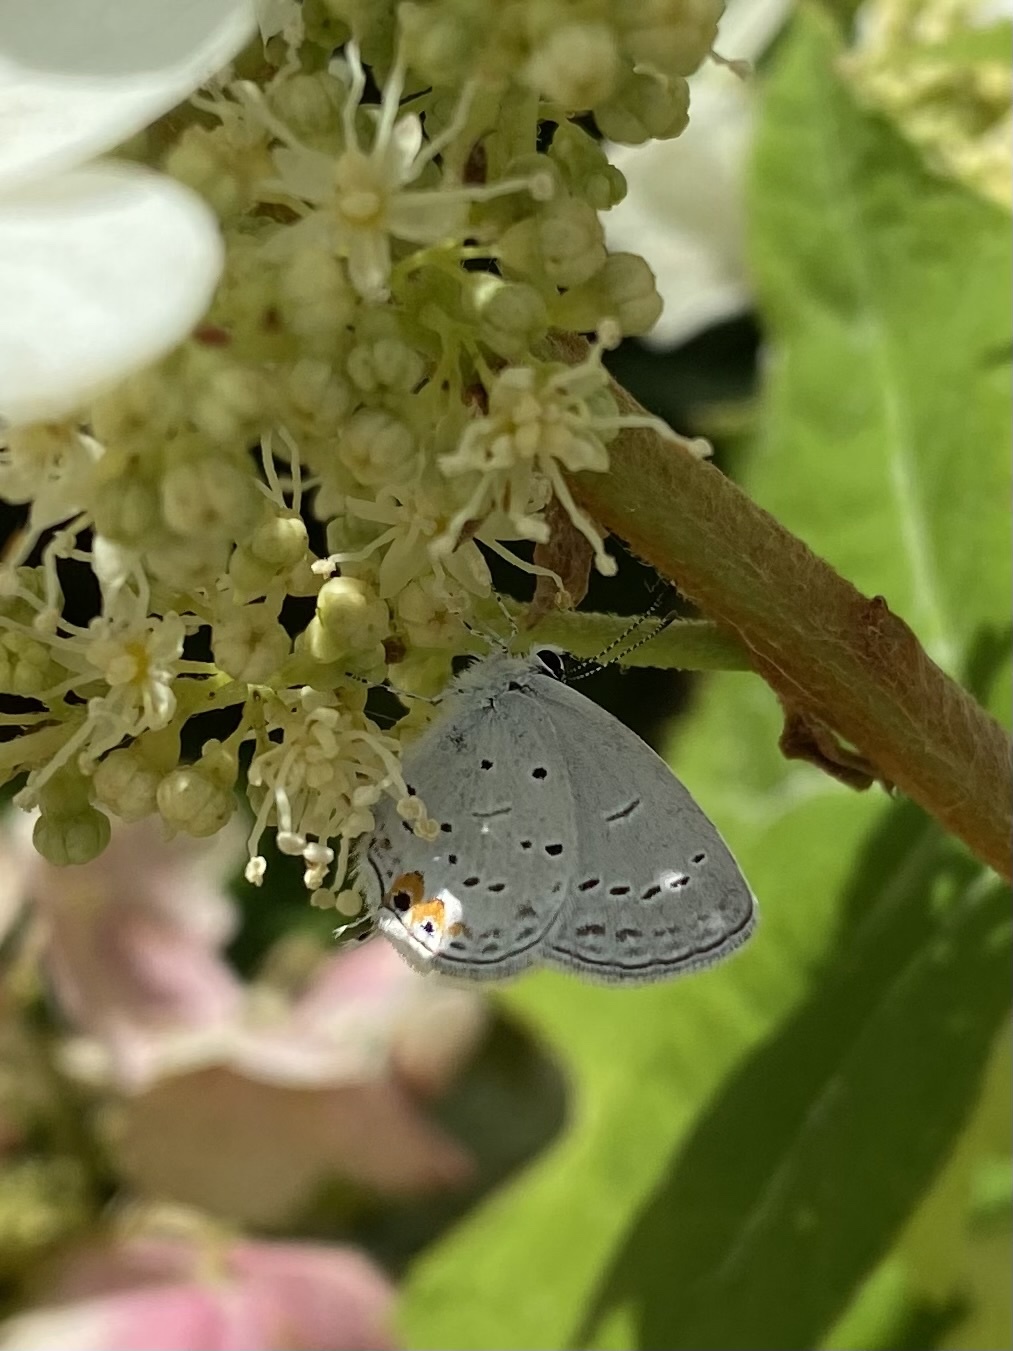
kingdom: Animalia
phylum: Arthropoda
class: Insecta
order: Lepidoptera
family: Lycaenidae
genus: Elkalyce
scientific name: Elkalyce comyntas
